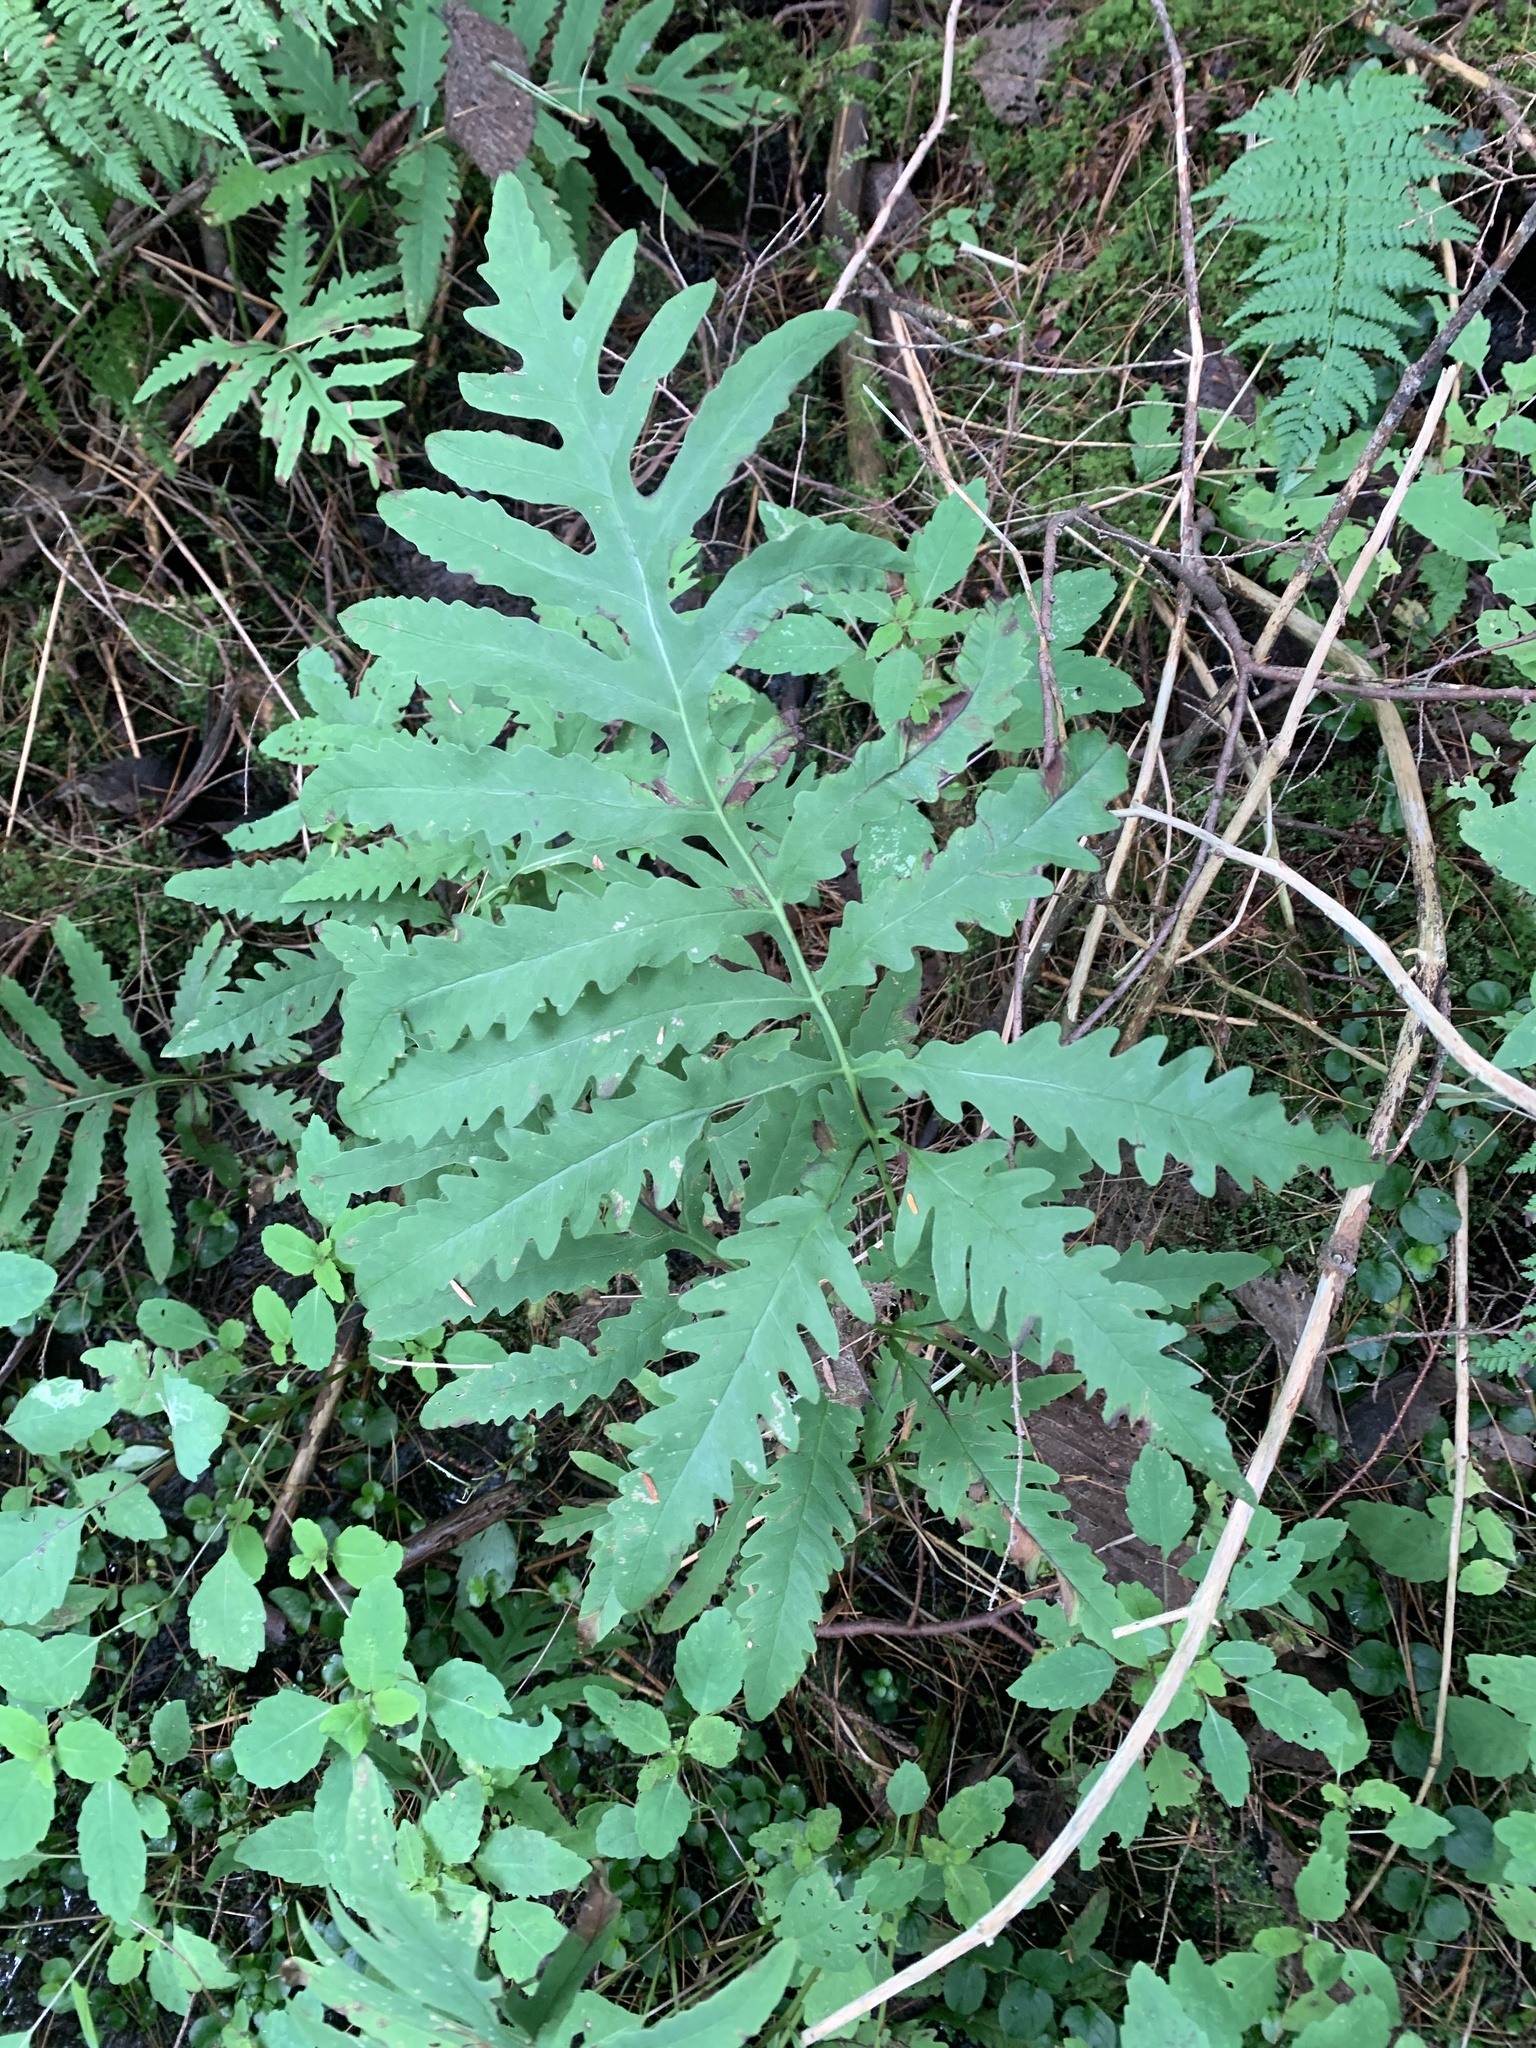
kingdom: Plantae
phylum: Tracheophyta
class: Polypodiopsida
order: Polypodiales
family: Onocleaceae
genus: Onoclea
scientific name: Onoclea sensibilis
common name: Sensitive fern
